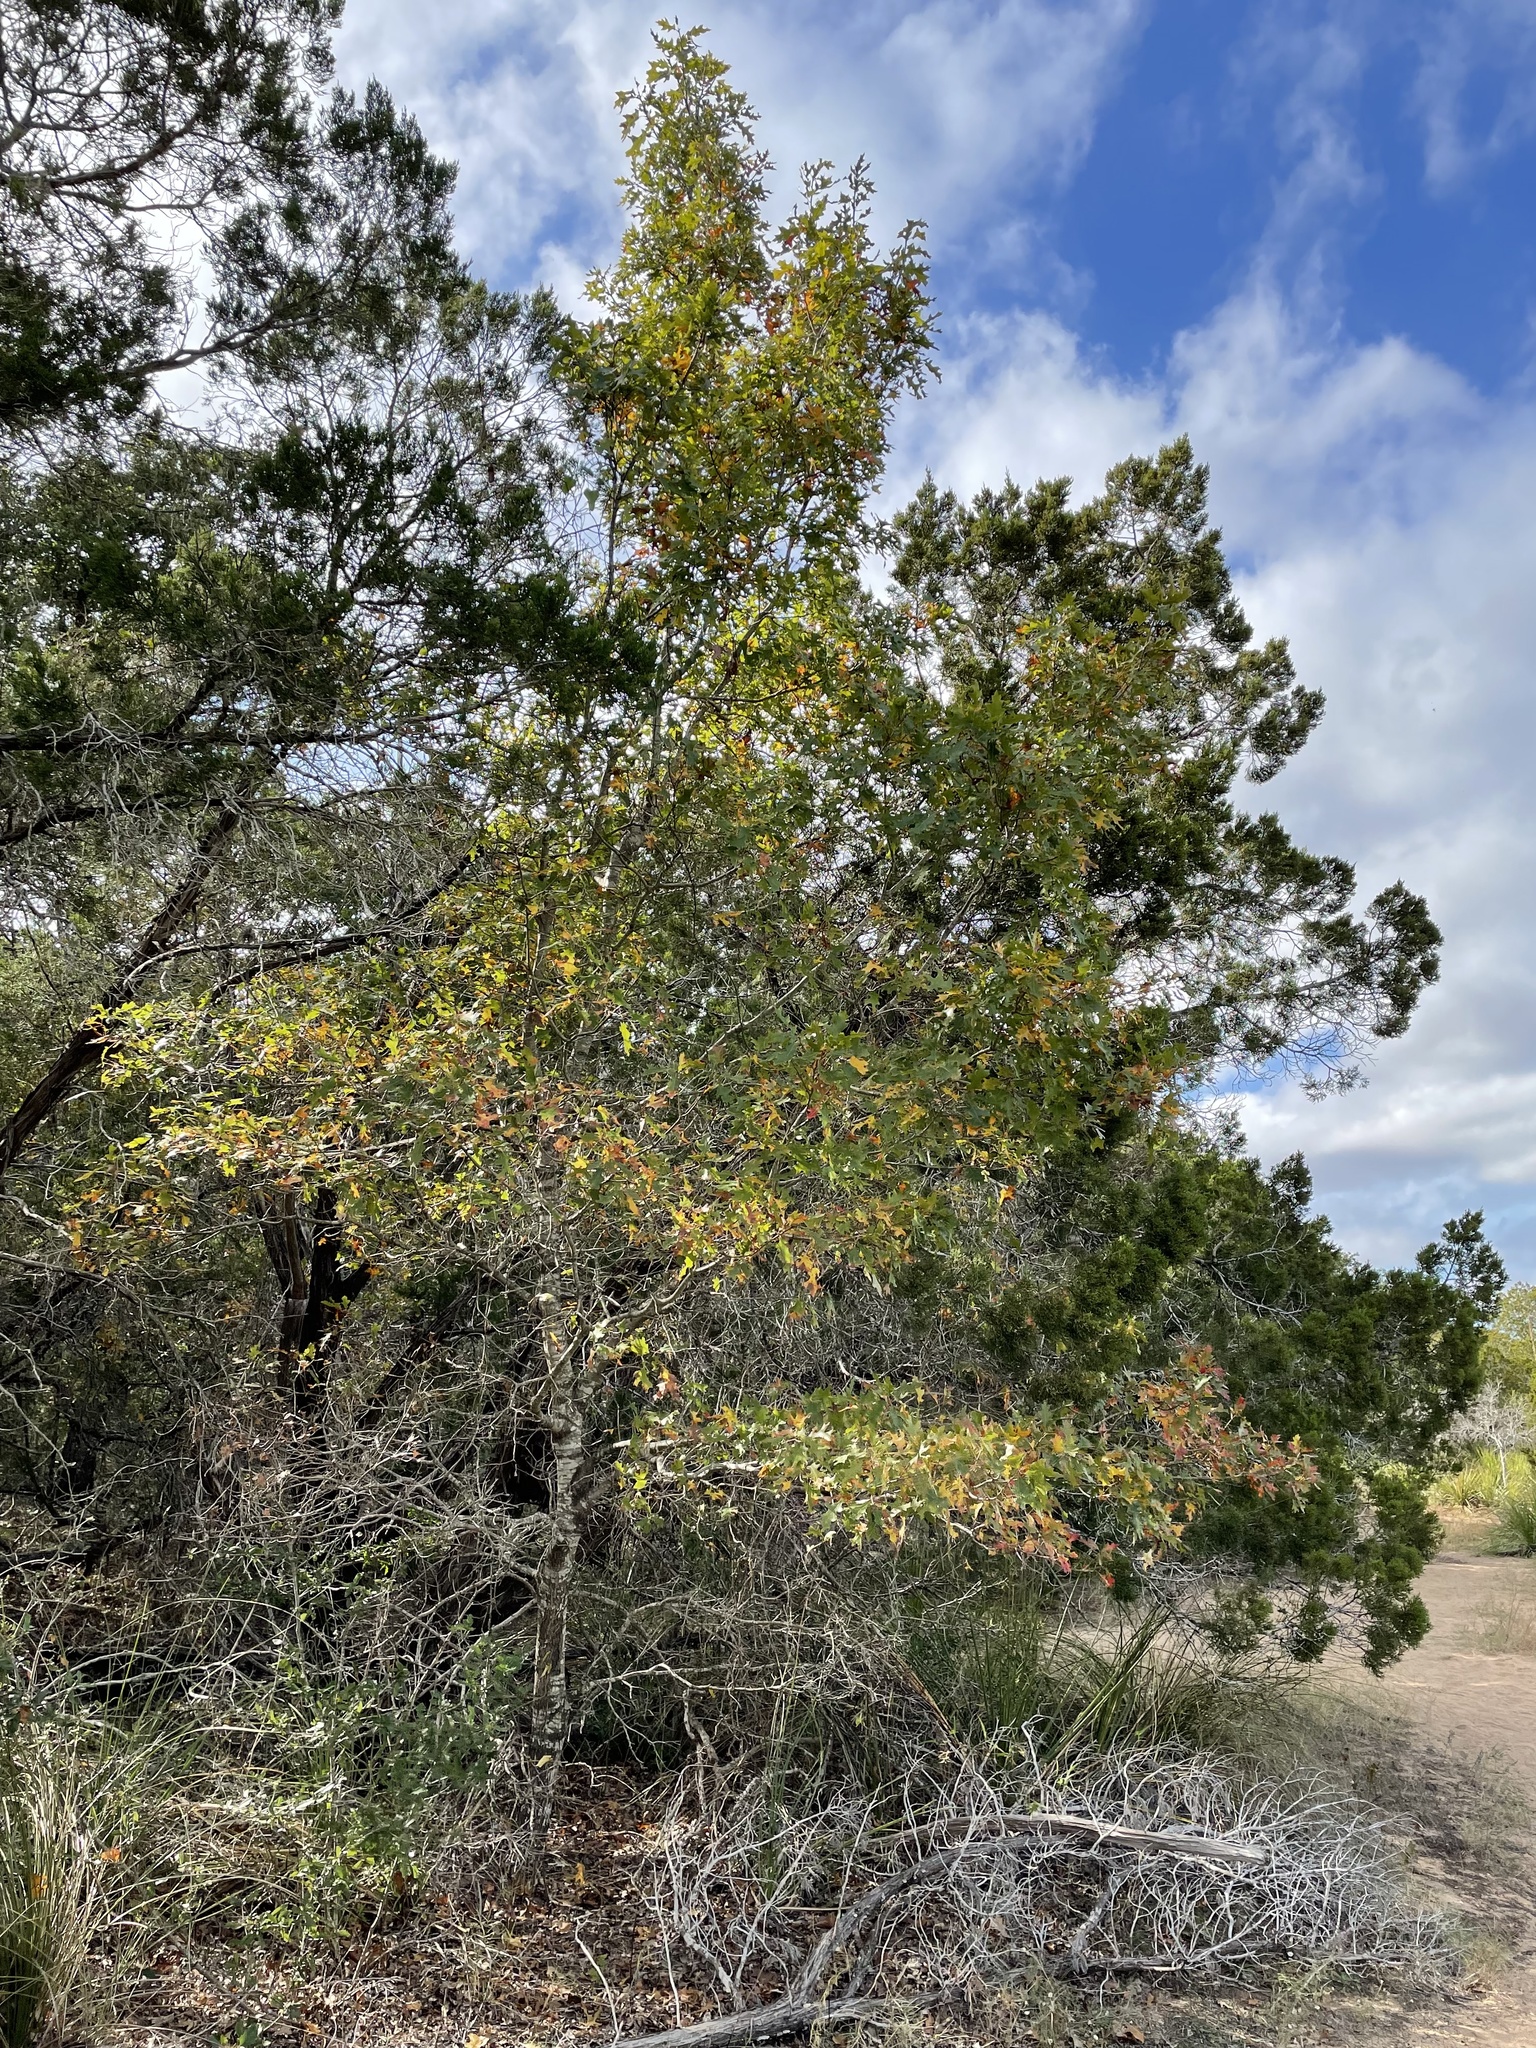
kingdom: Plantae
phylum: Tracheophyta
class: Magnoliopsida
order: Fagales
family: Fagaceae
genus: Quercus
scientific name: Quercus buckleyi
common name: Buckley oak
